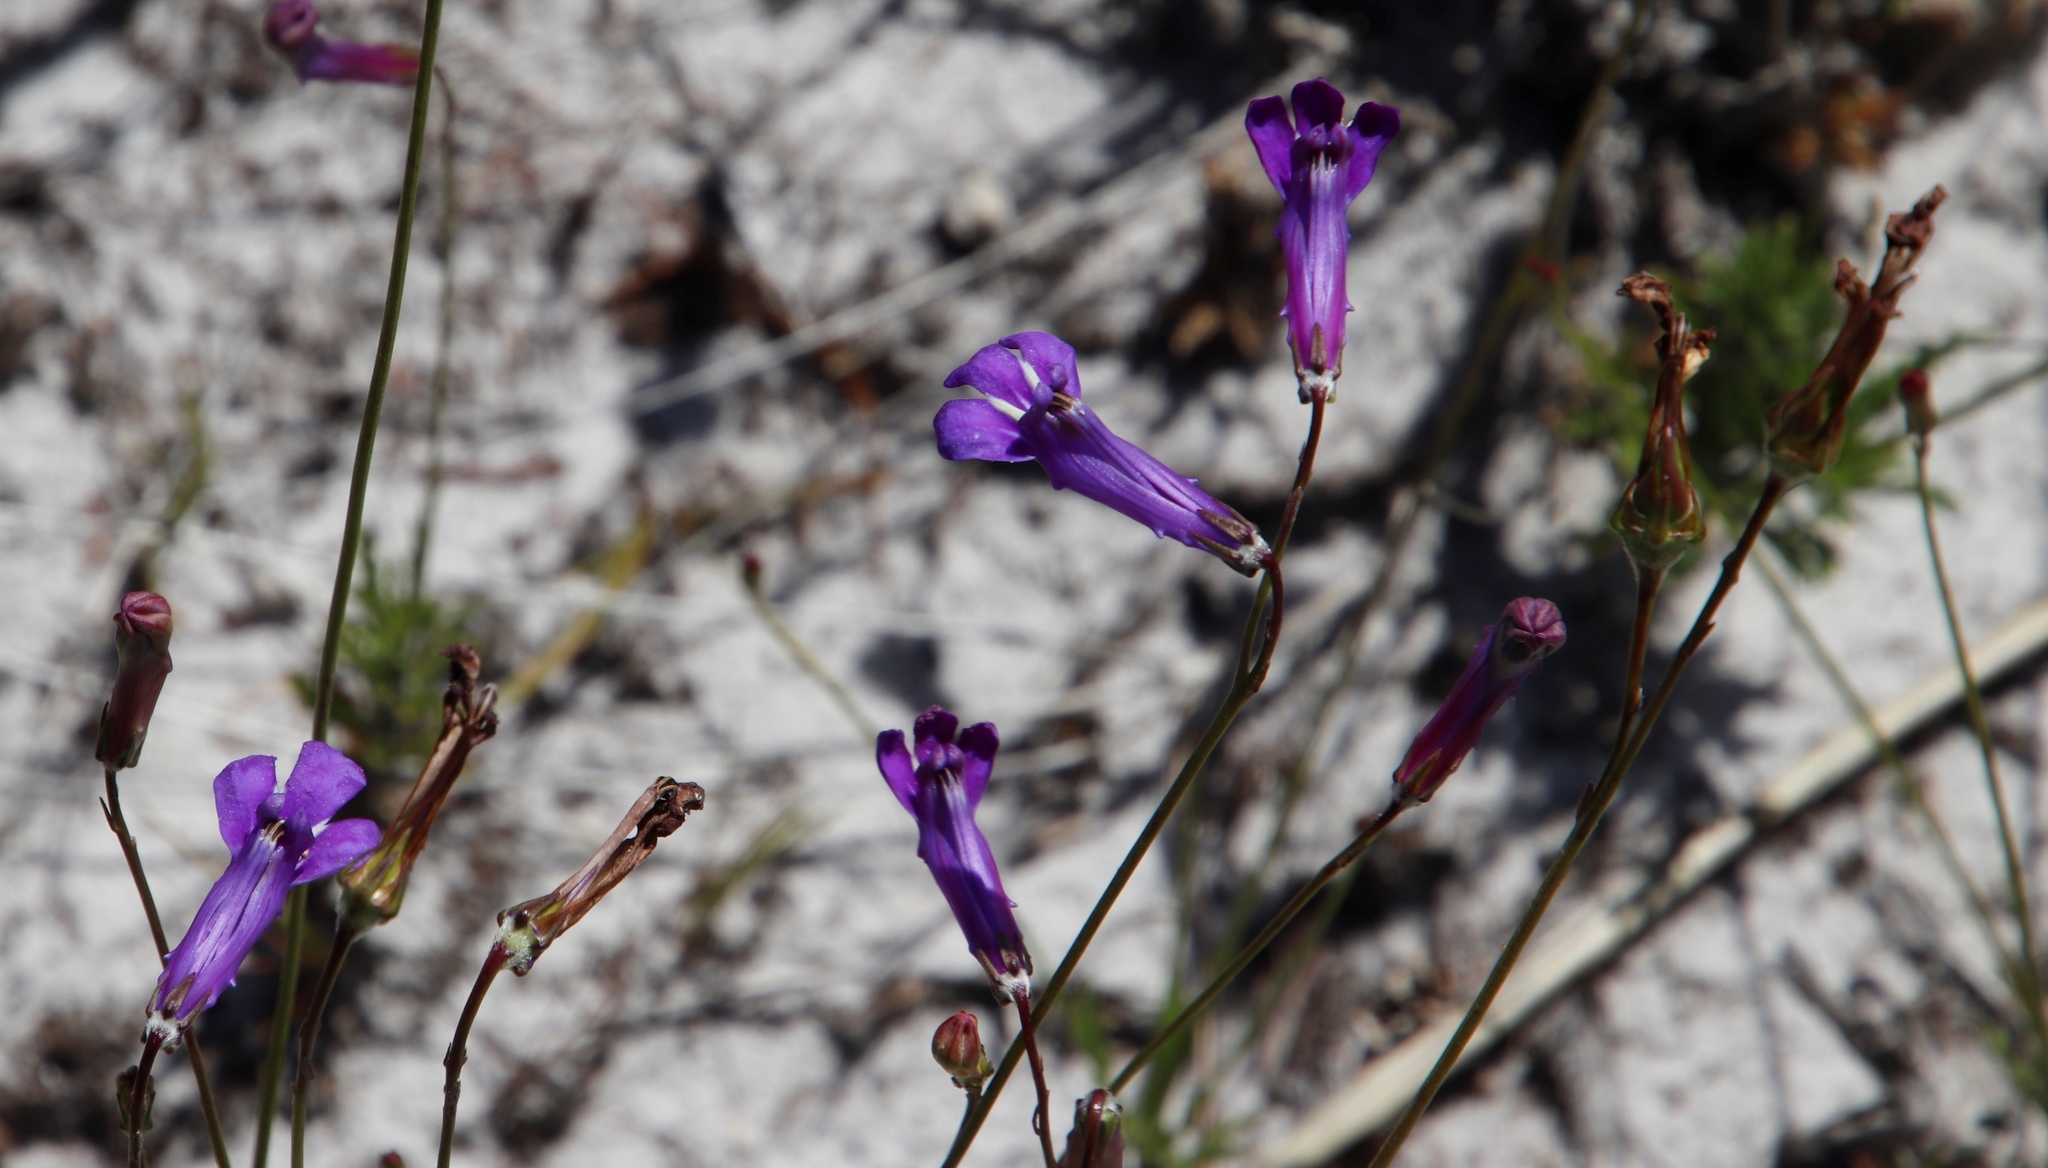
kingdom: Plantae
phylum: Tracheophyta
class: Magnoliopsida
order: Asterales
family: Campanulaceae
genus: Lobelia
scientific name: Lobelia coronopifolia
